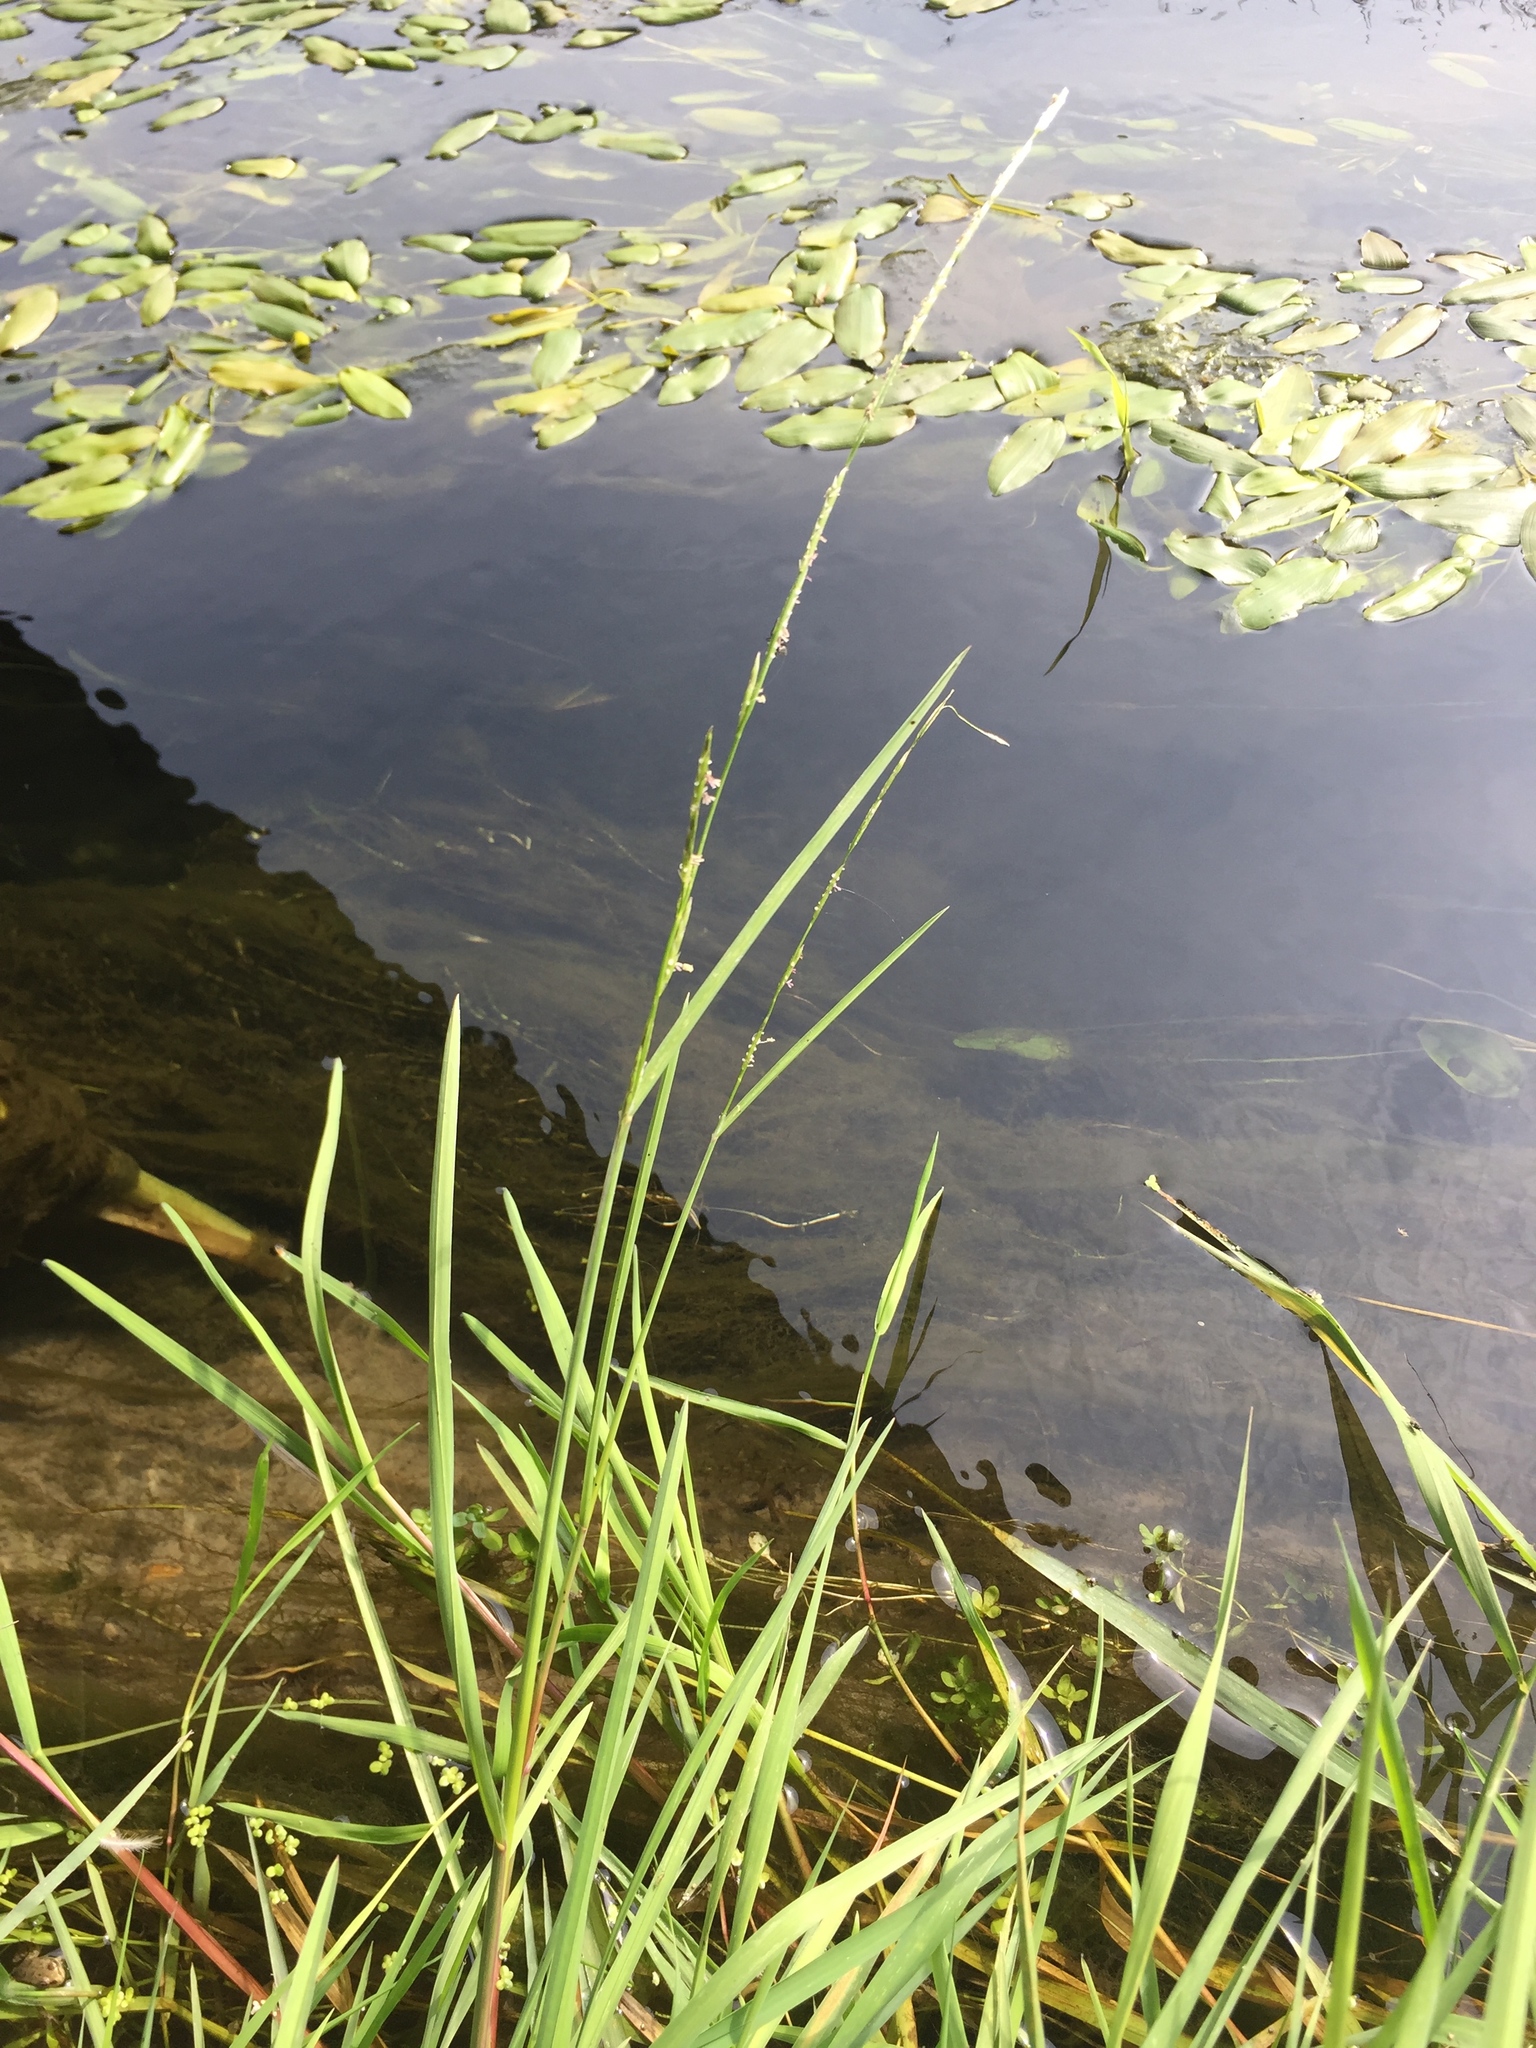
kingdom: Plantae
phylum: Tracheophyta
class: Liliopsida
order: Poales
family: Poaceae
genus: Glyceria
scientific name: Glyceria fluitans
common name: Floating sweet-grass
